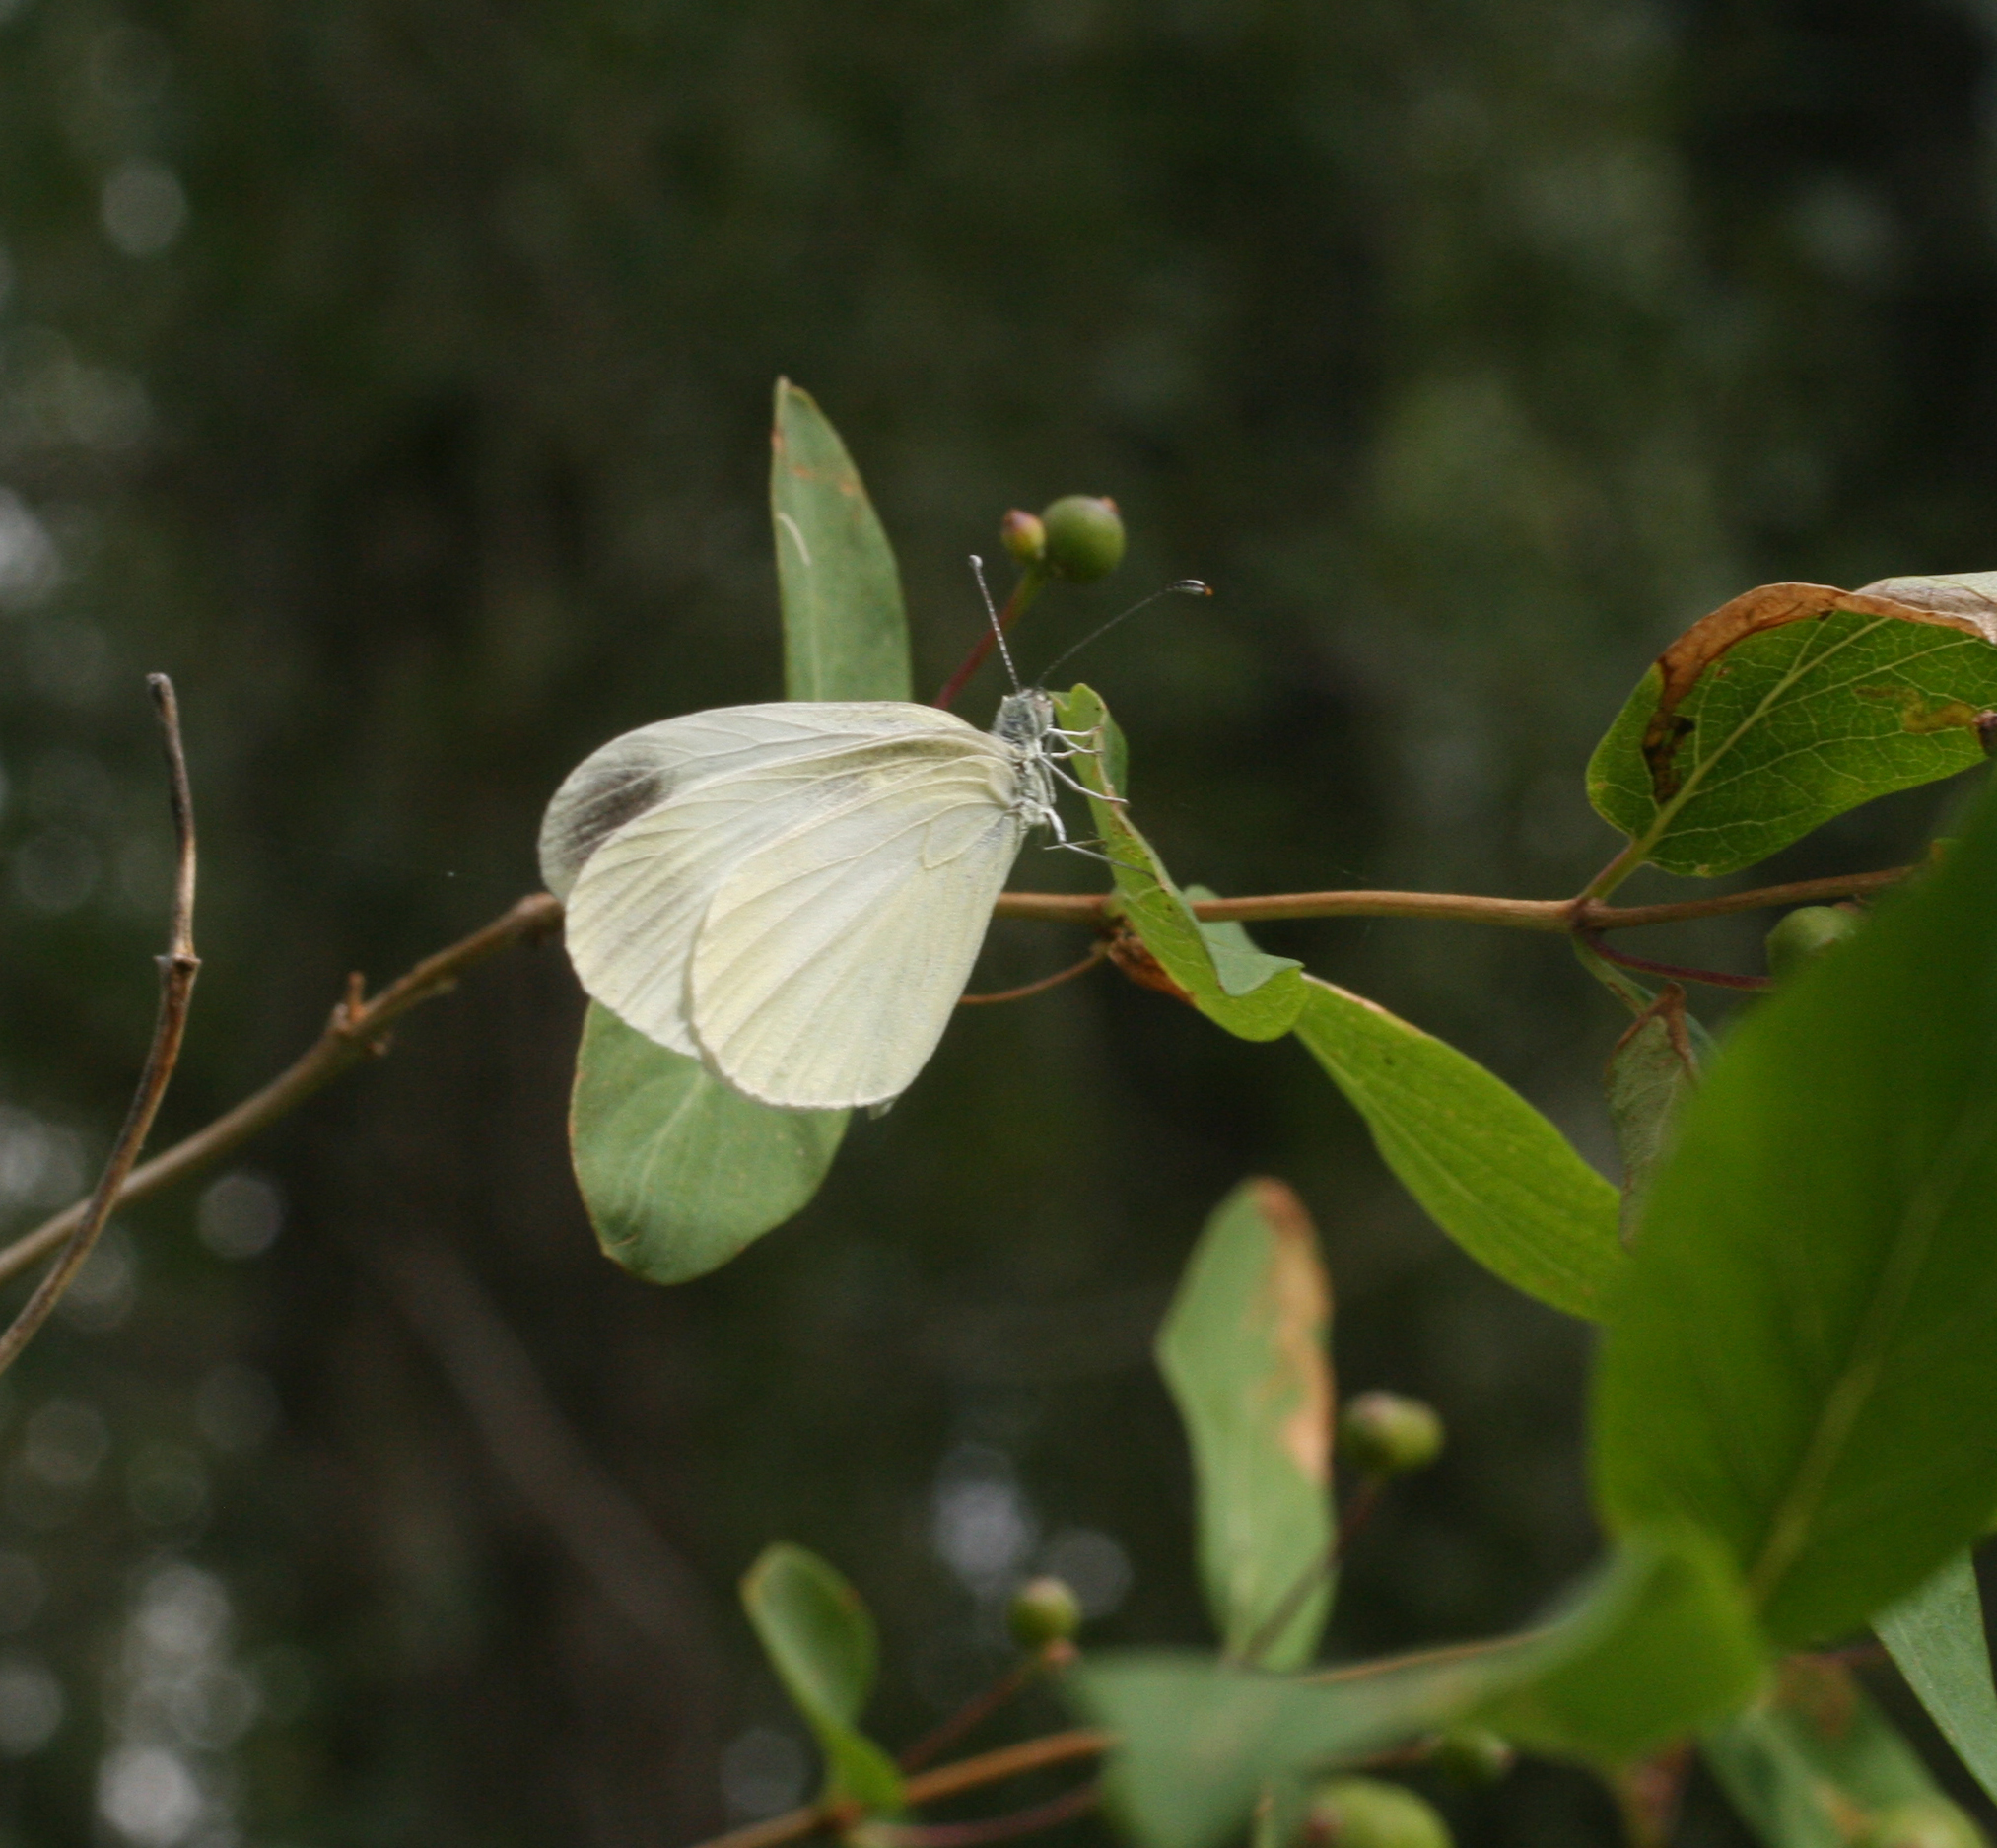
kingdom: Plantae
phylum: Tracheophyta
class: Magnoliopsida
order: Dipsacales
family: Caprifoliaceae
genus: Lonicera
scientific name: Lonicera tatarica
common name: Tatarian honeysuckle
